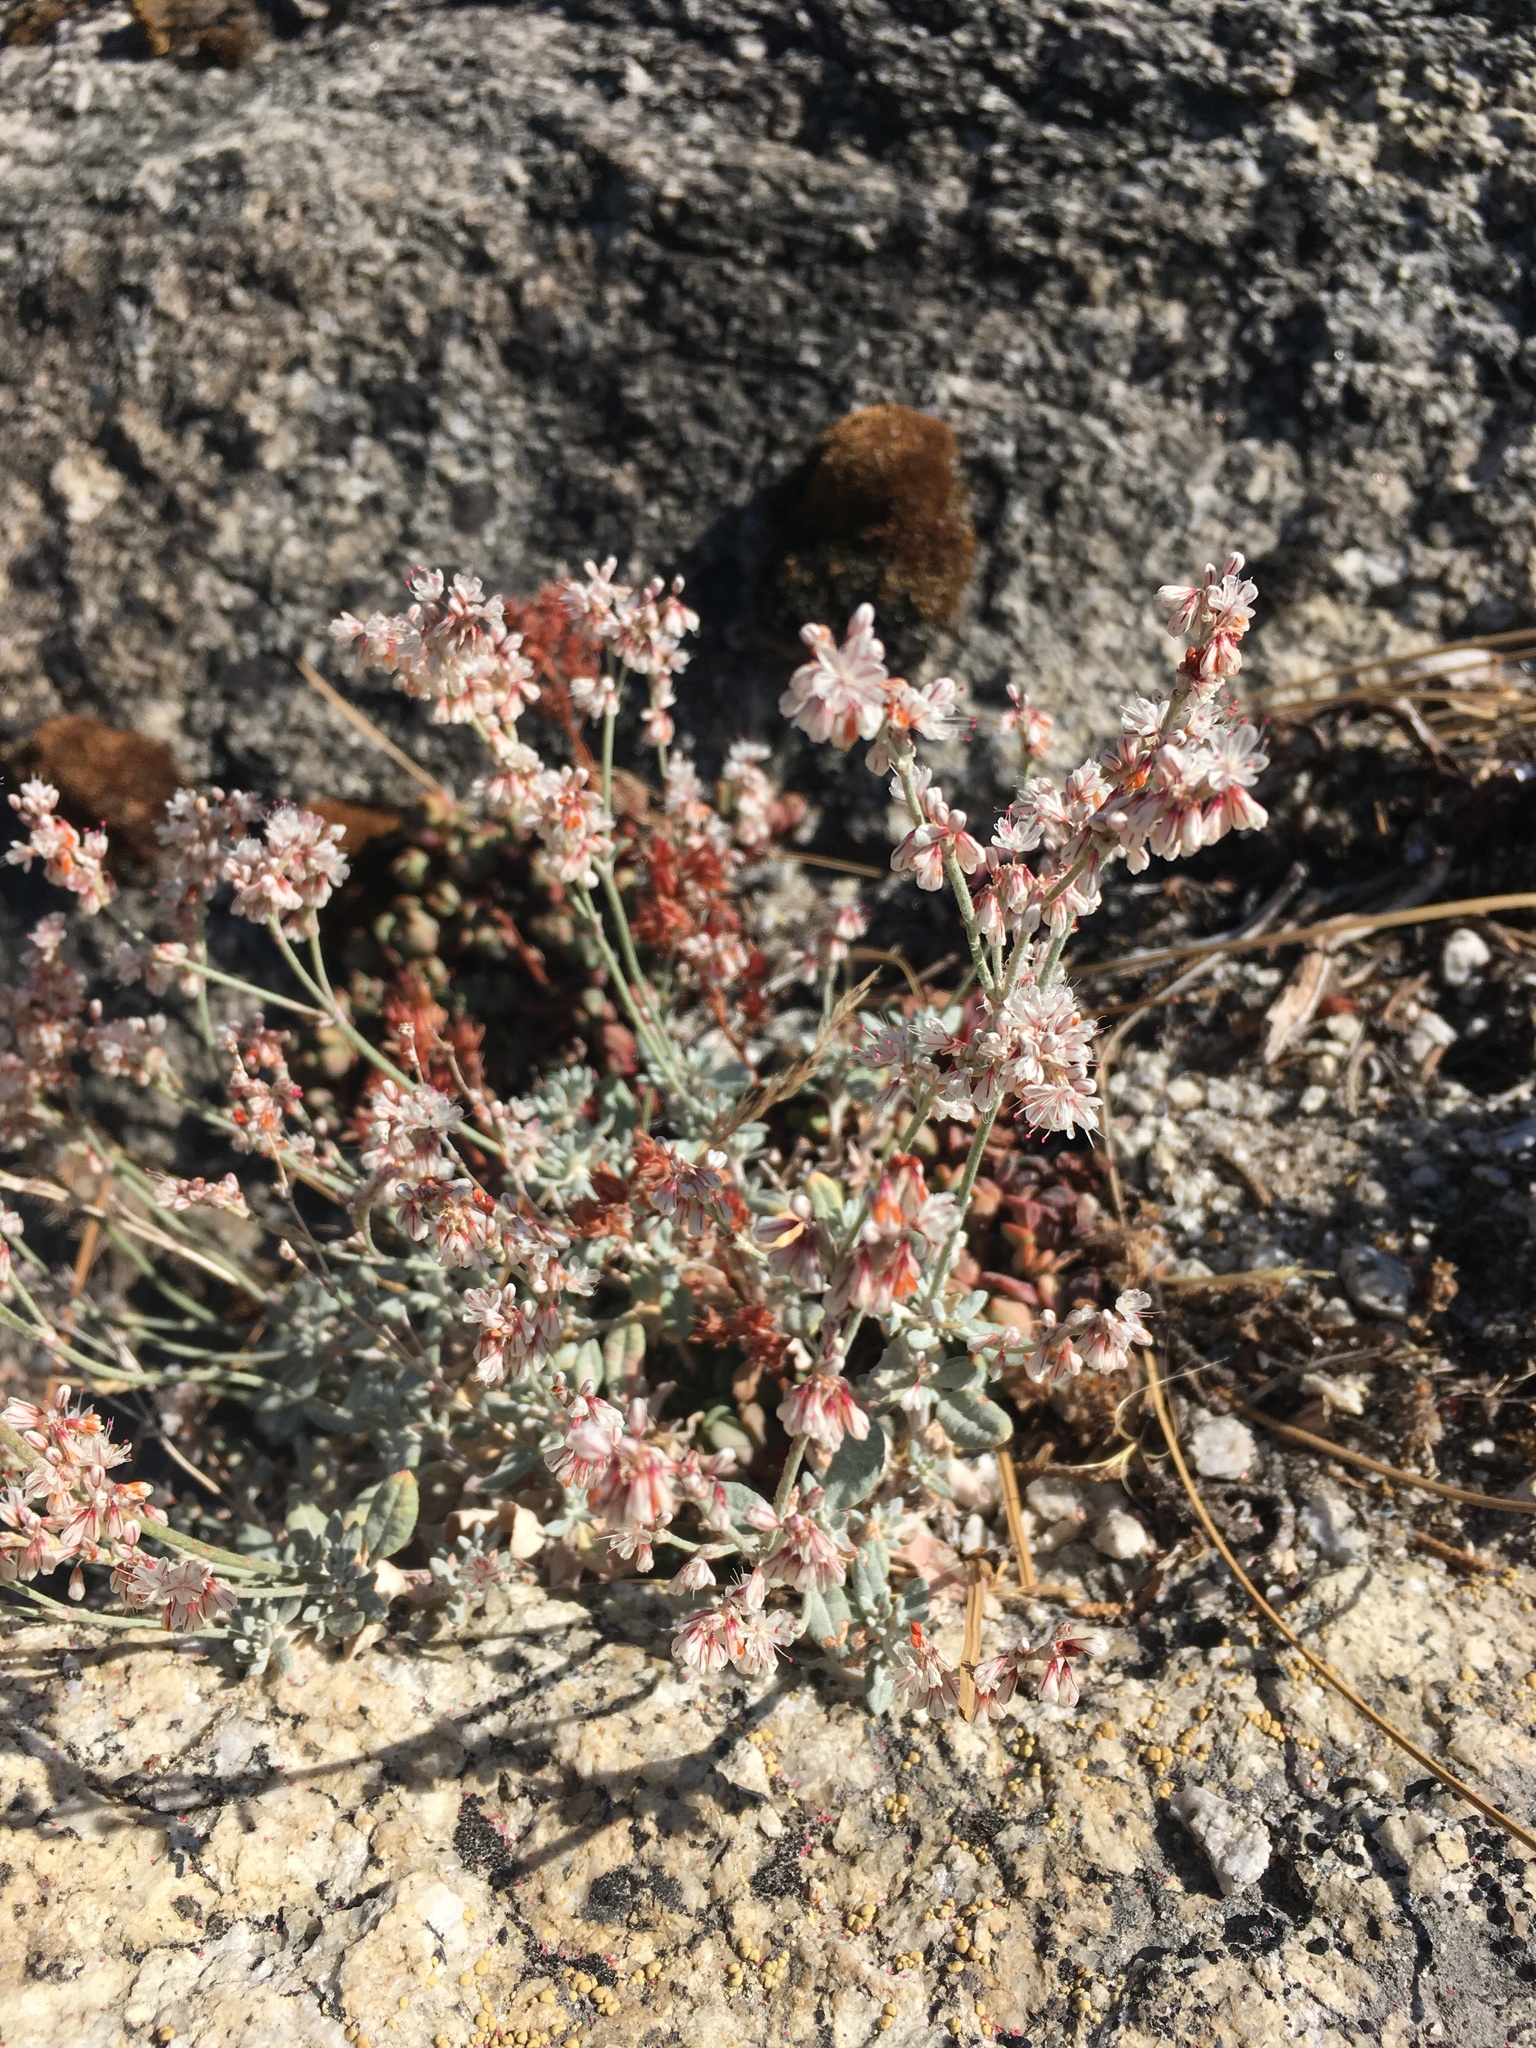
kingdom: Plantae
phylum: Tracheophyta
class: Magnoliopsida
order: Caryophyllales
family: Polygonaceae
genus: Eriogonum
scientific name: Eriogonum wrightii
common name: Bastard-sage
